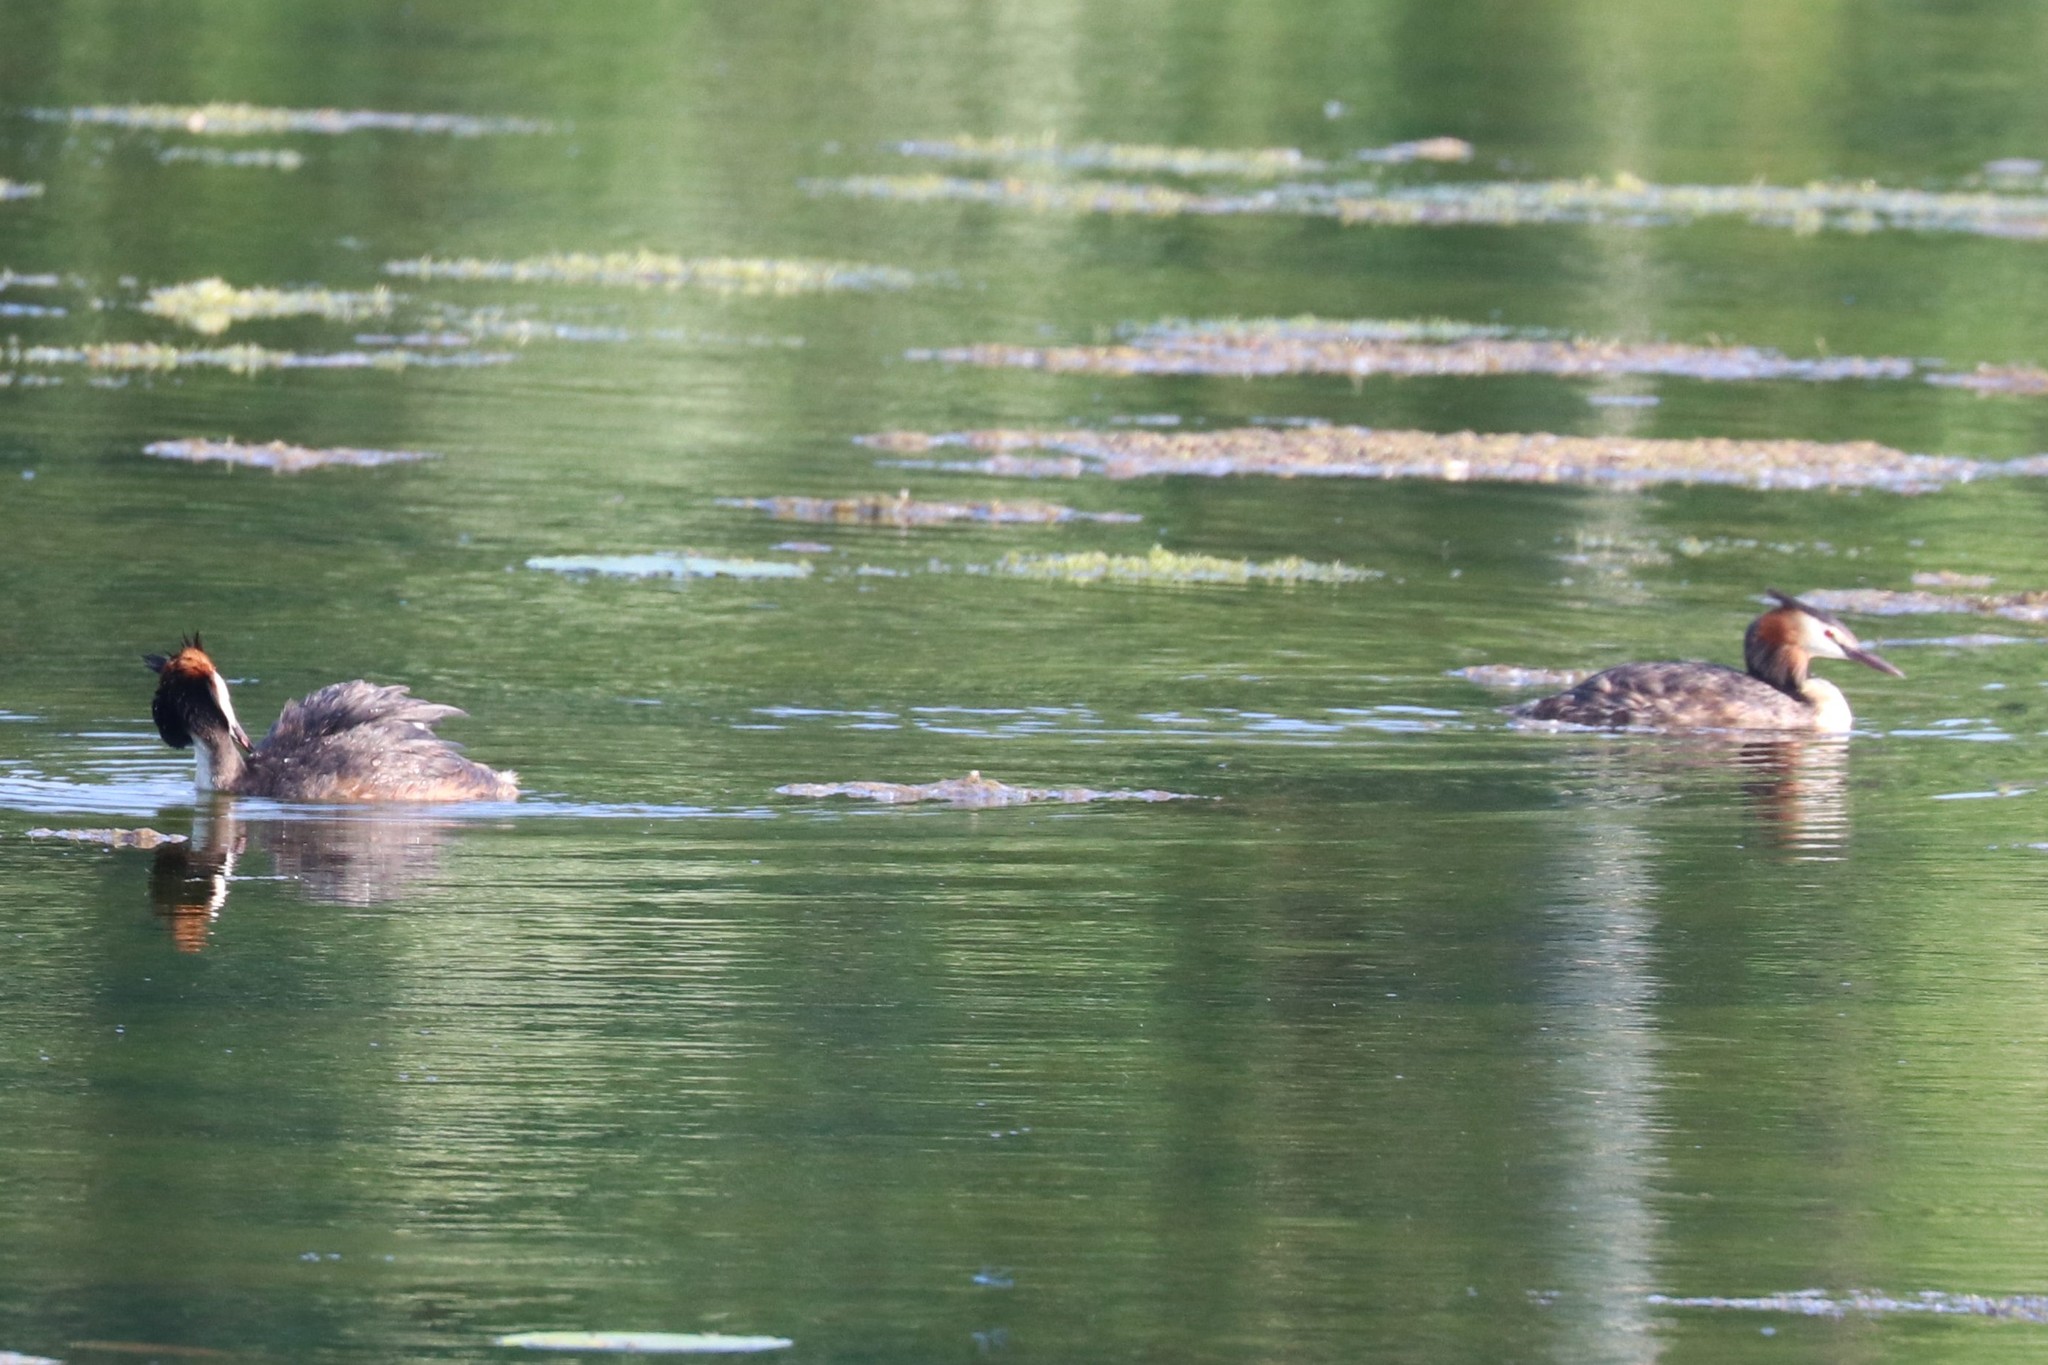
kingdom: Animalia
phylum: Chordata
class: Aves
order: Podicipediformes
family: Podicipedidae
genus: Podiceps
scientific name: Podiceps cristatus
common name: Great crested grebe
